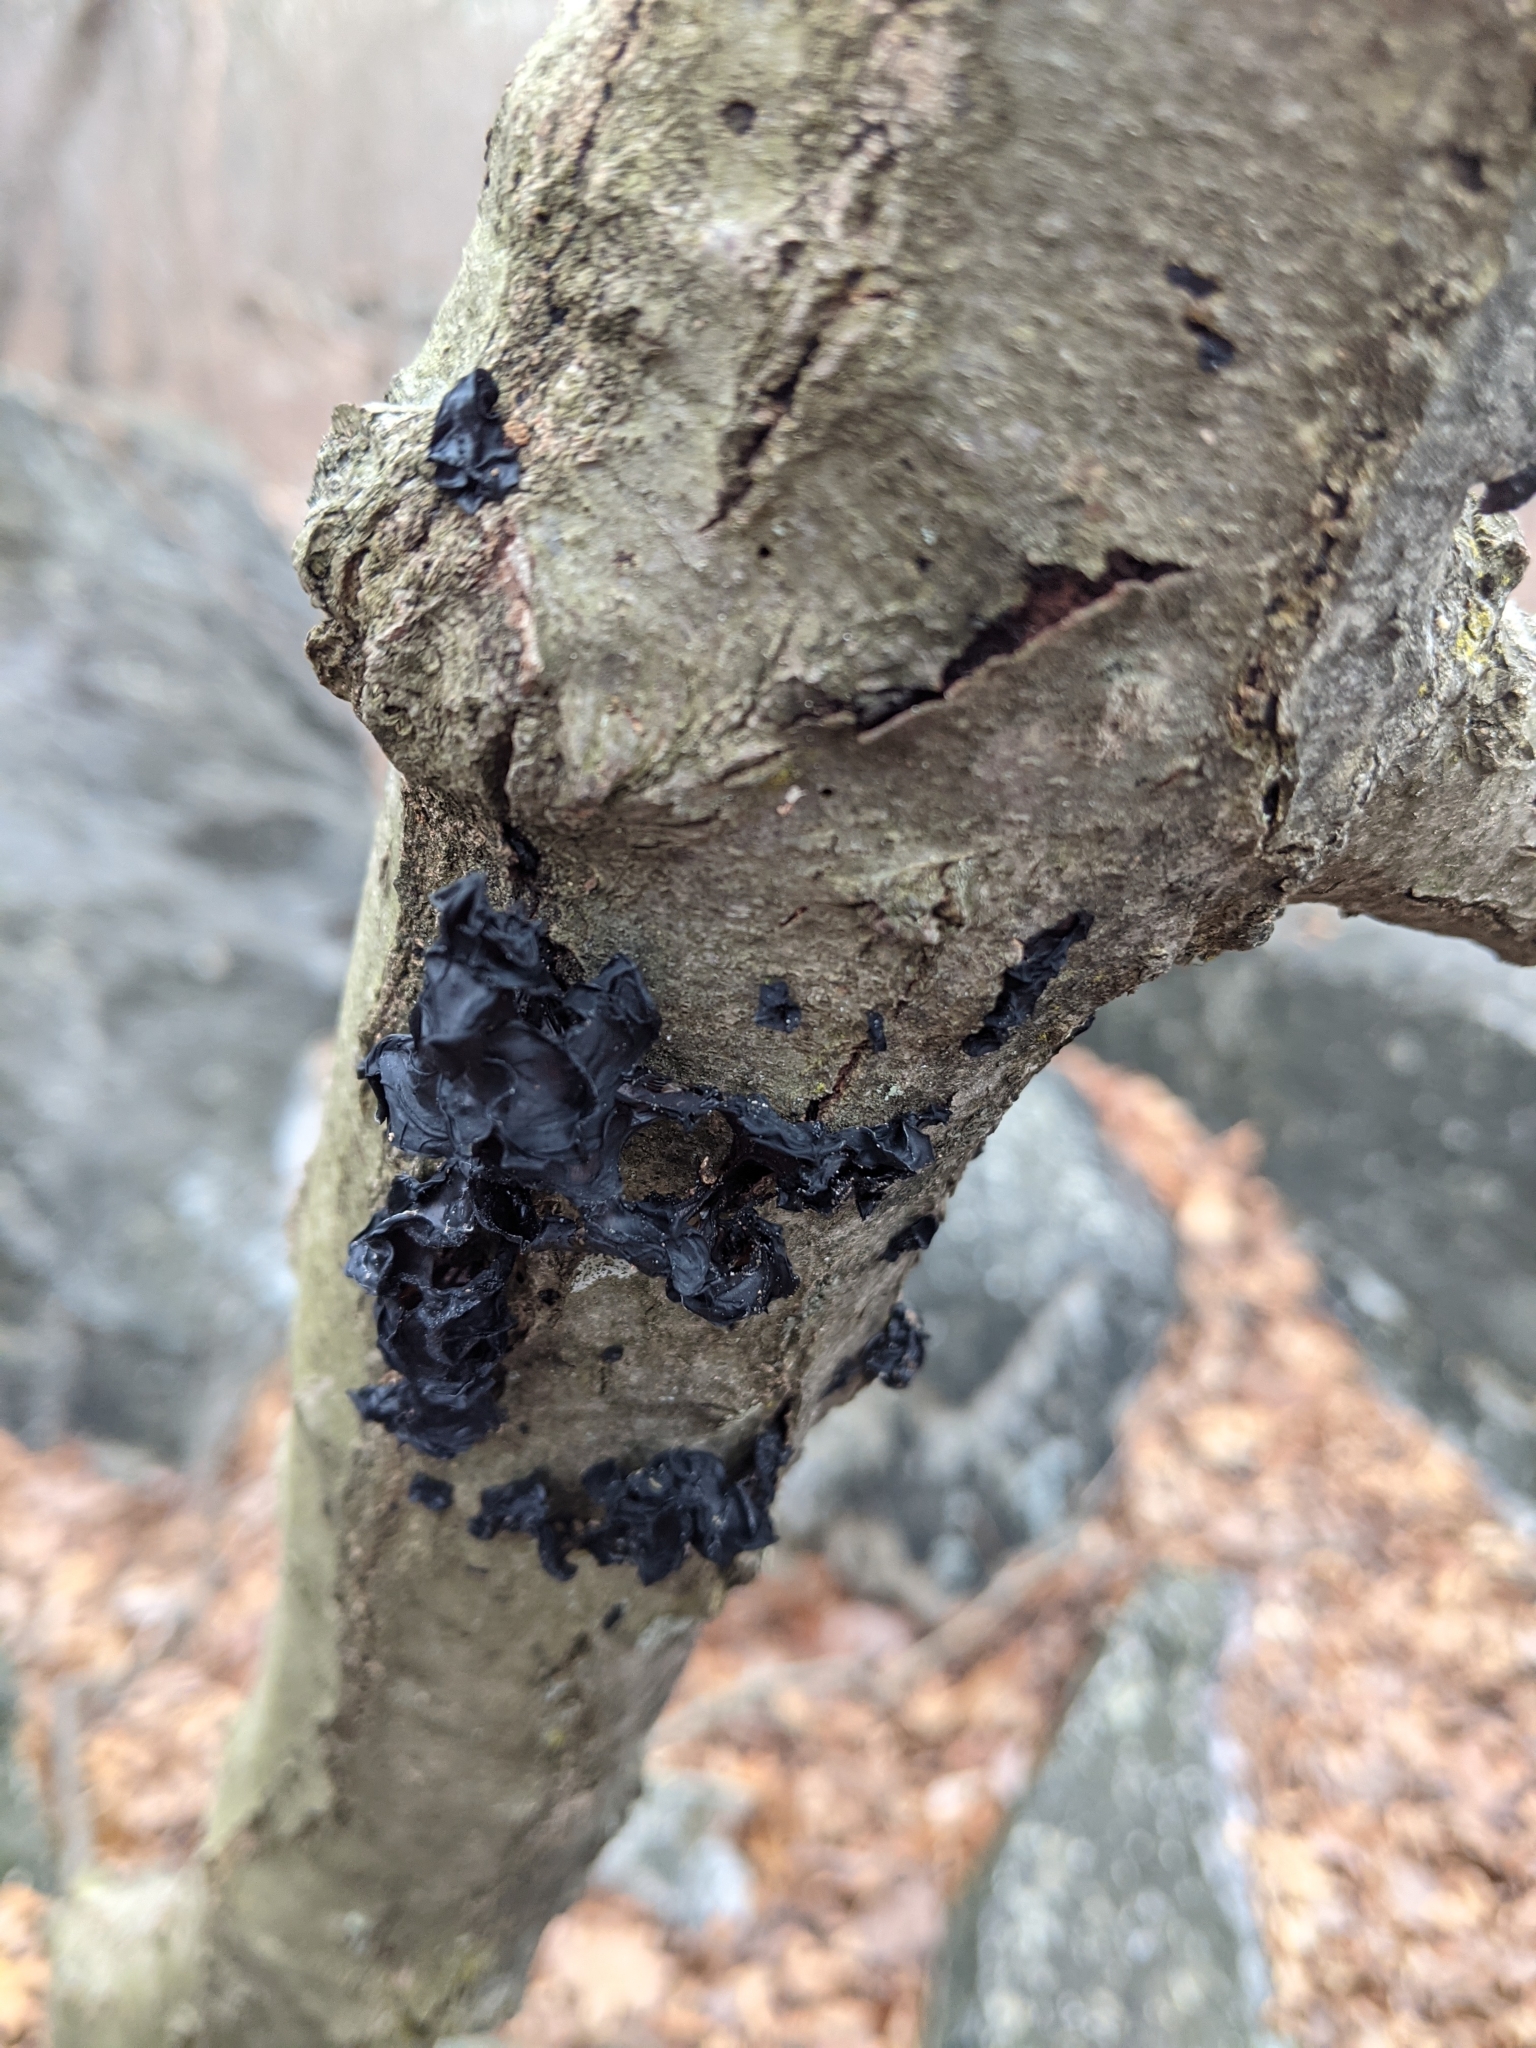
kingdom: Fungi
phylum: Basidiomycota
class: Agaricomycetes
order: Auriculariales
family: Auriculariaceae
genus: Exidia
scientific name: Exidia glandulosa
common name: Witches' butter
